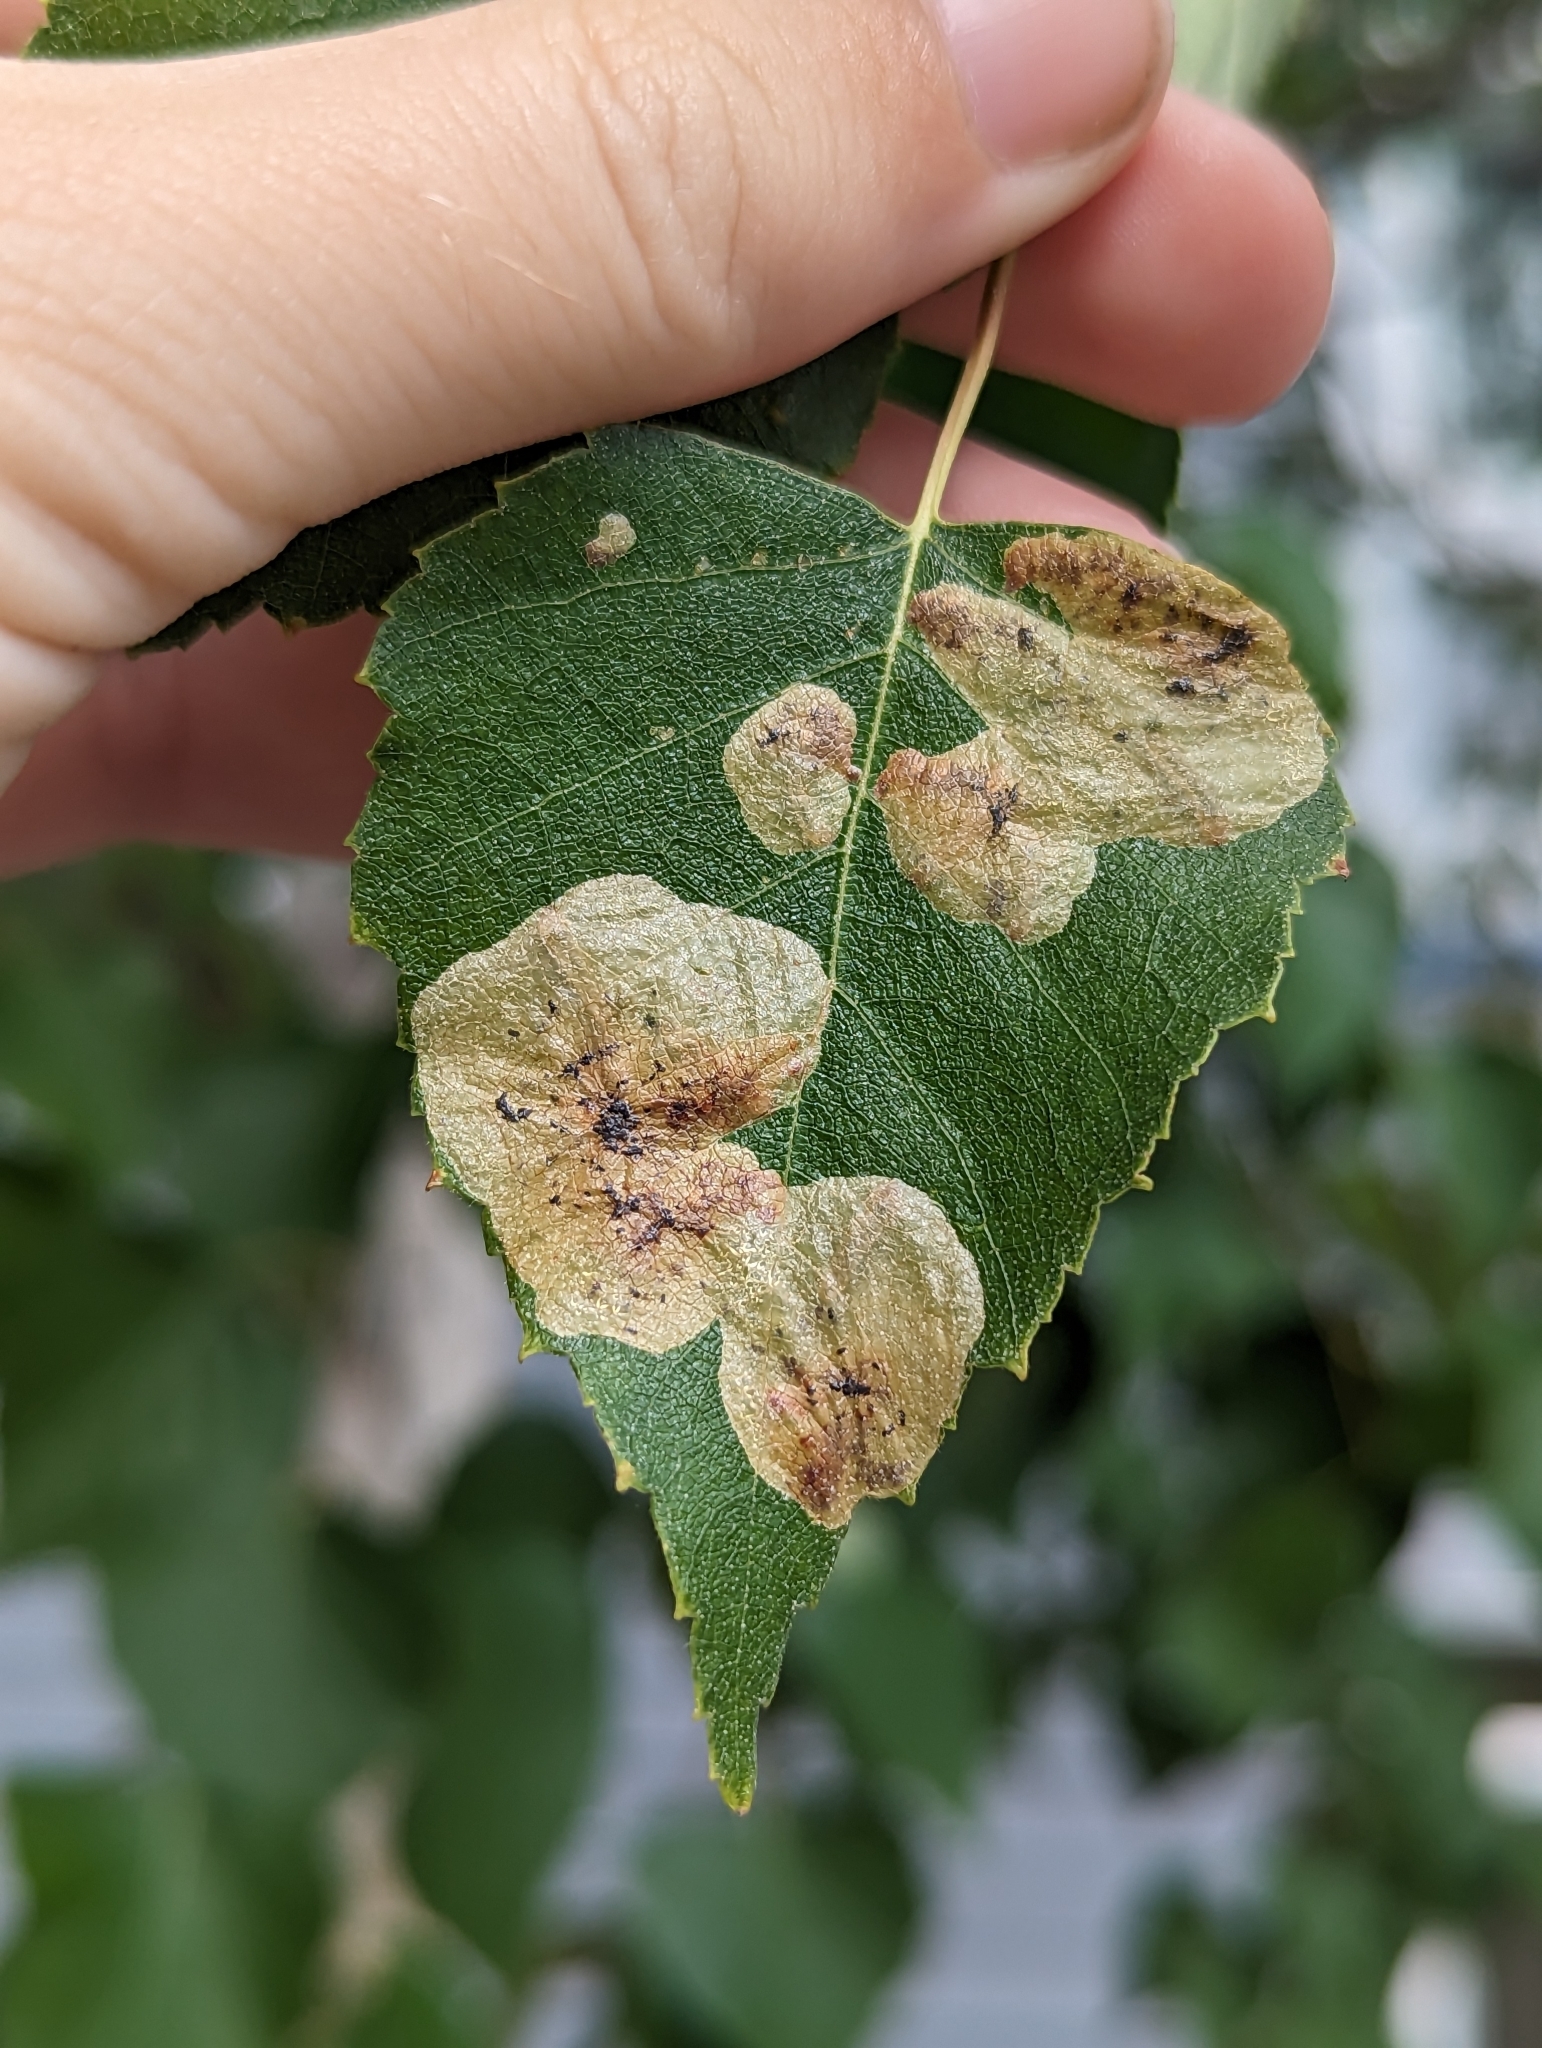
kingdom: Animalia
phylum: Arthropoda
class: Insecta
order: Hymenoptera
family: Tenthredinidae
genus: Profenusa
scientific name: Profenusa thomsoni
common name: Amber-marked birch leafminer
